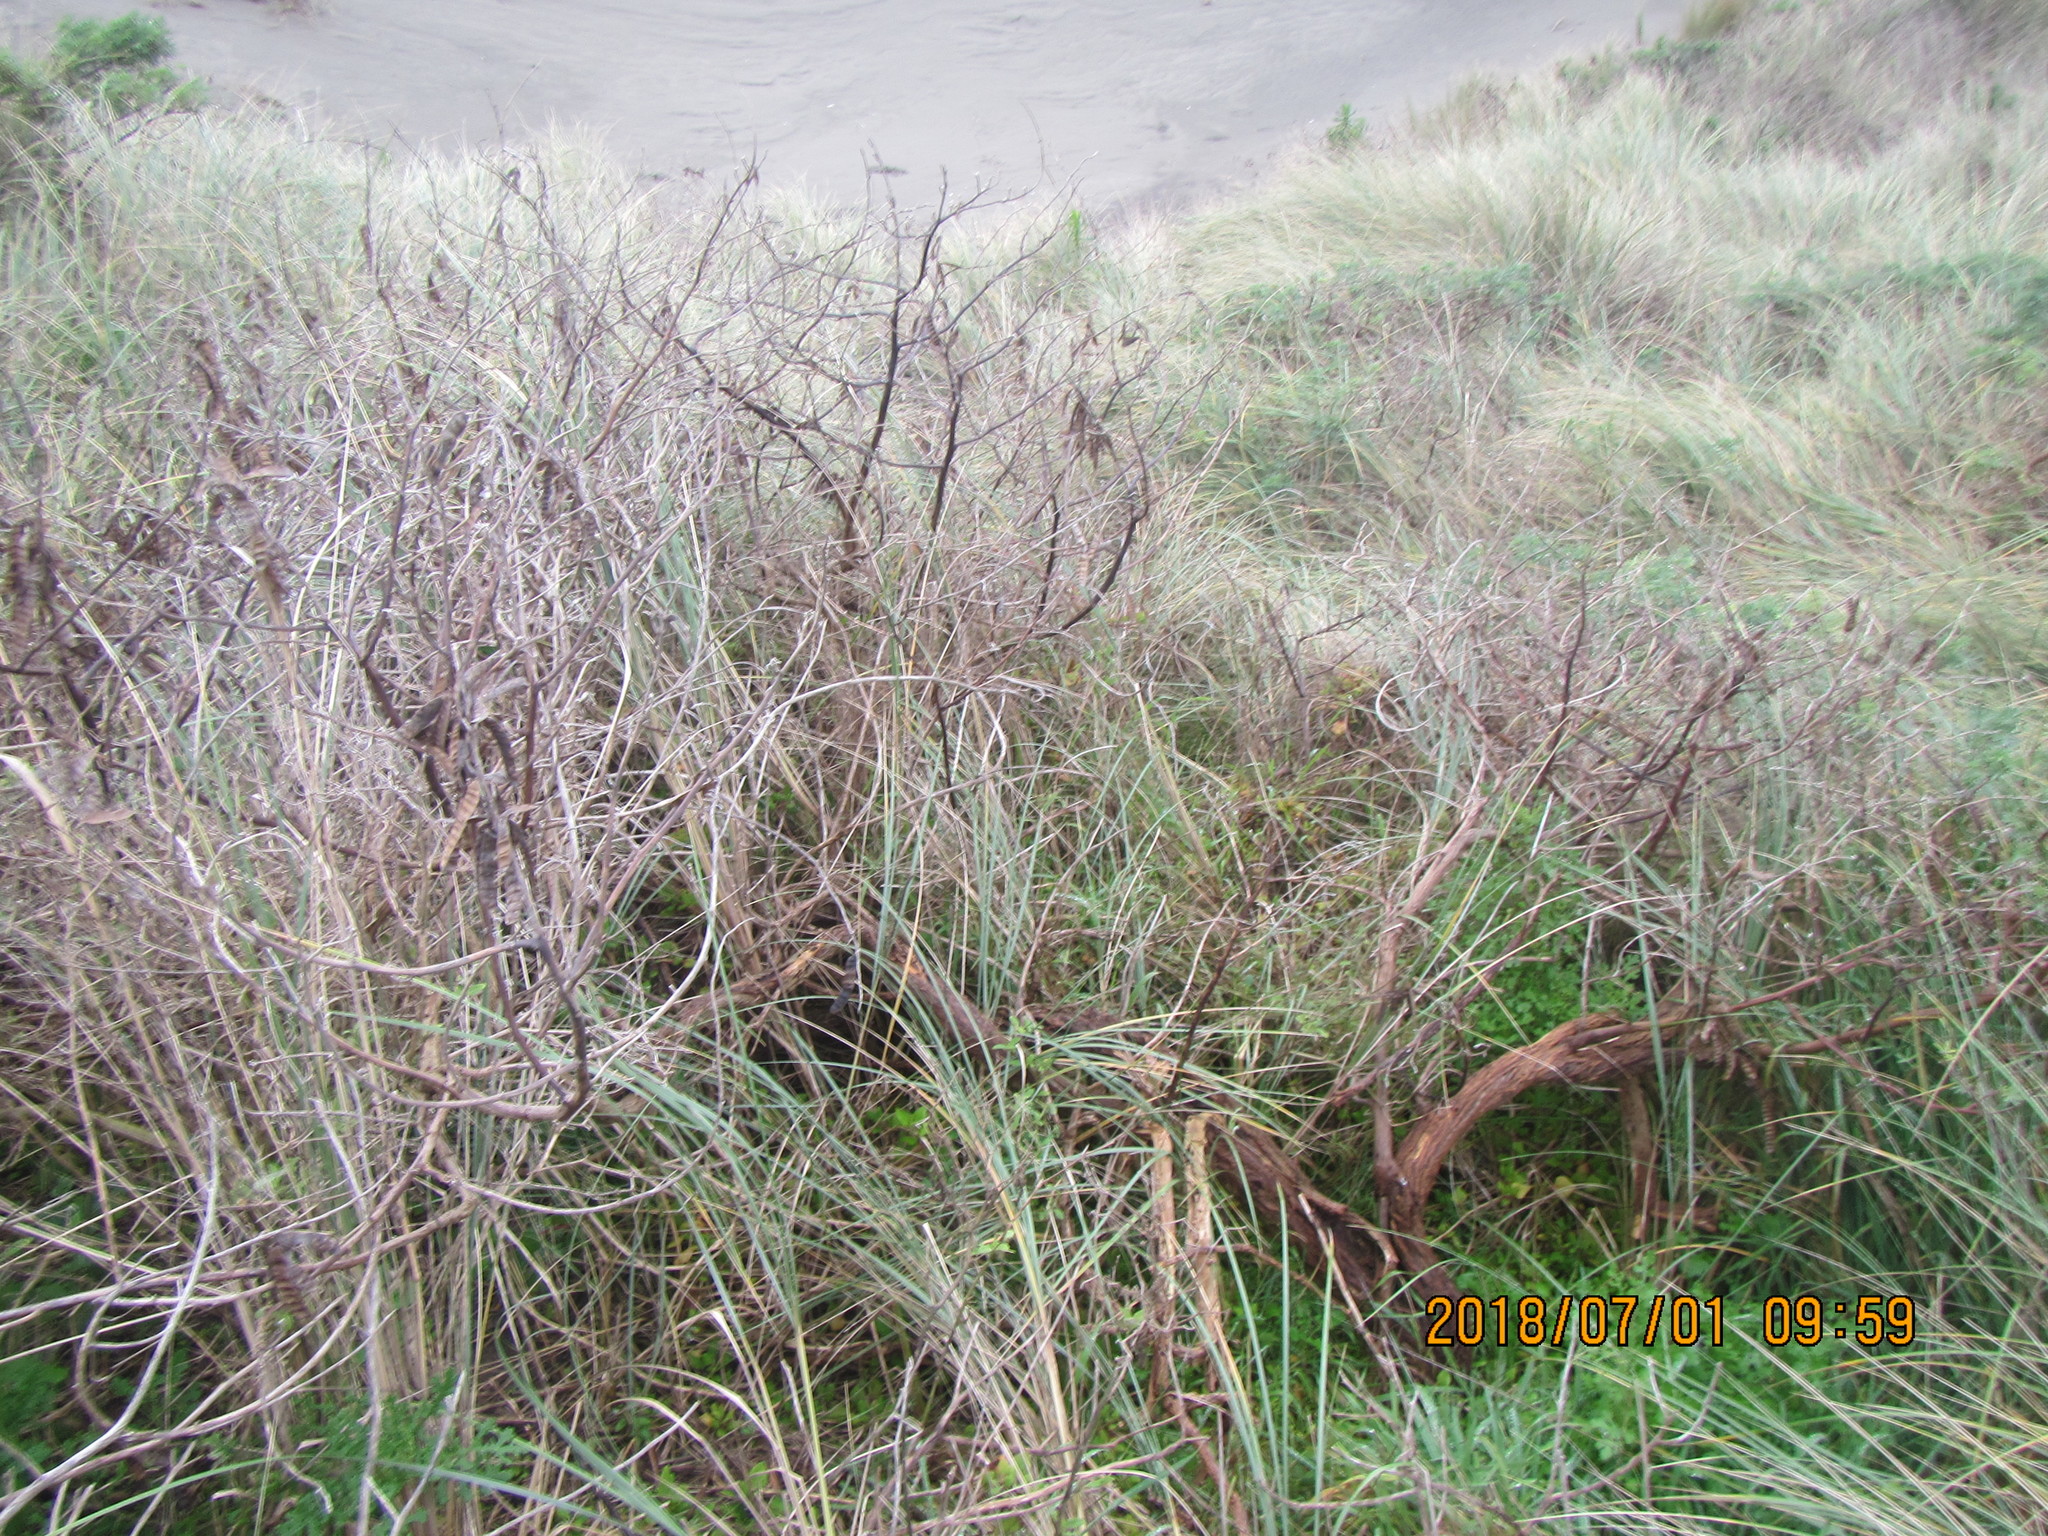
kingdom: Plantae
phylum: Tracheophyta
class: Magnoliopsida
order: Fabales
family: Fabaceae
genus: Lupinus
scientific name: Lupinus arboreus
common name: Yellow bush lupine
